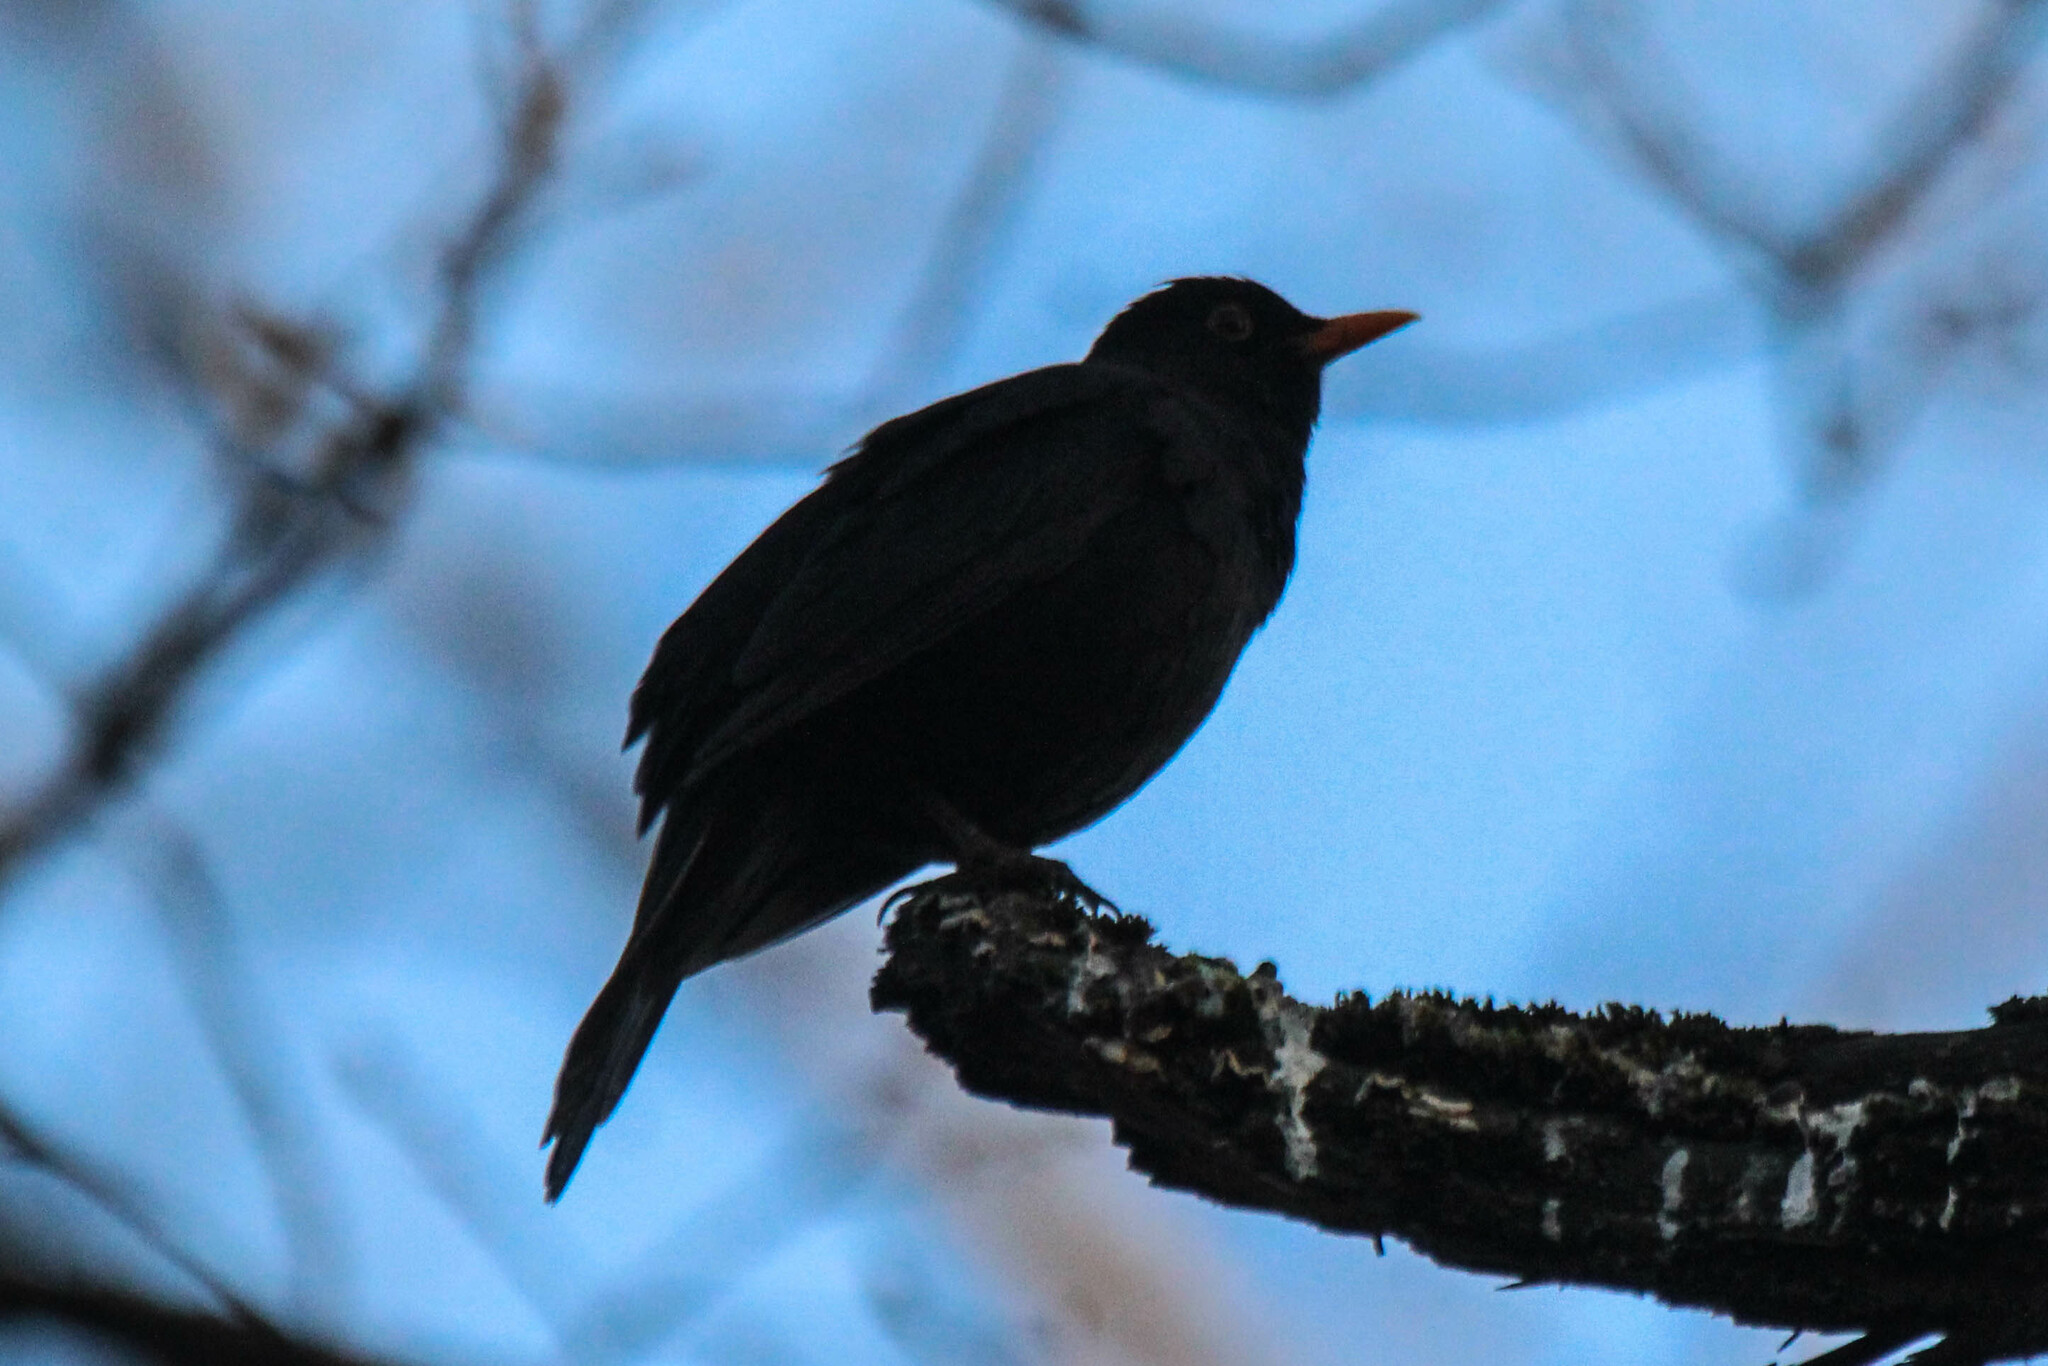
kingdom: Animalia
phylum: Chordata
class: Aves
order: Passeriformes
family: Turdidae
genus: Turdus
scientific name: Turdus merula
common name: Common blackbird
